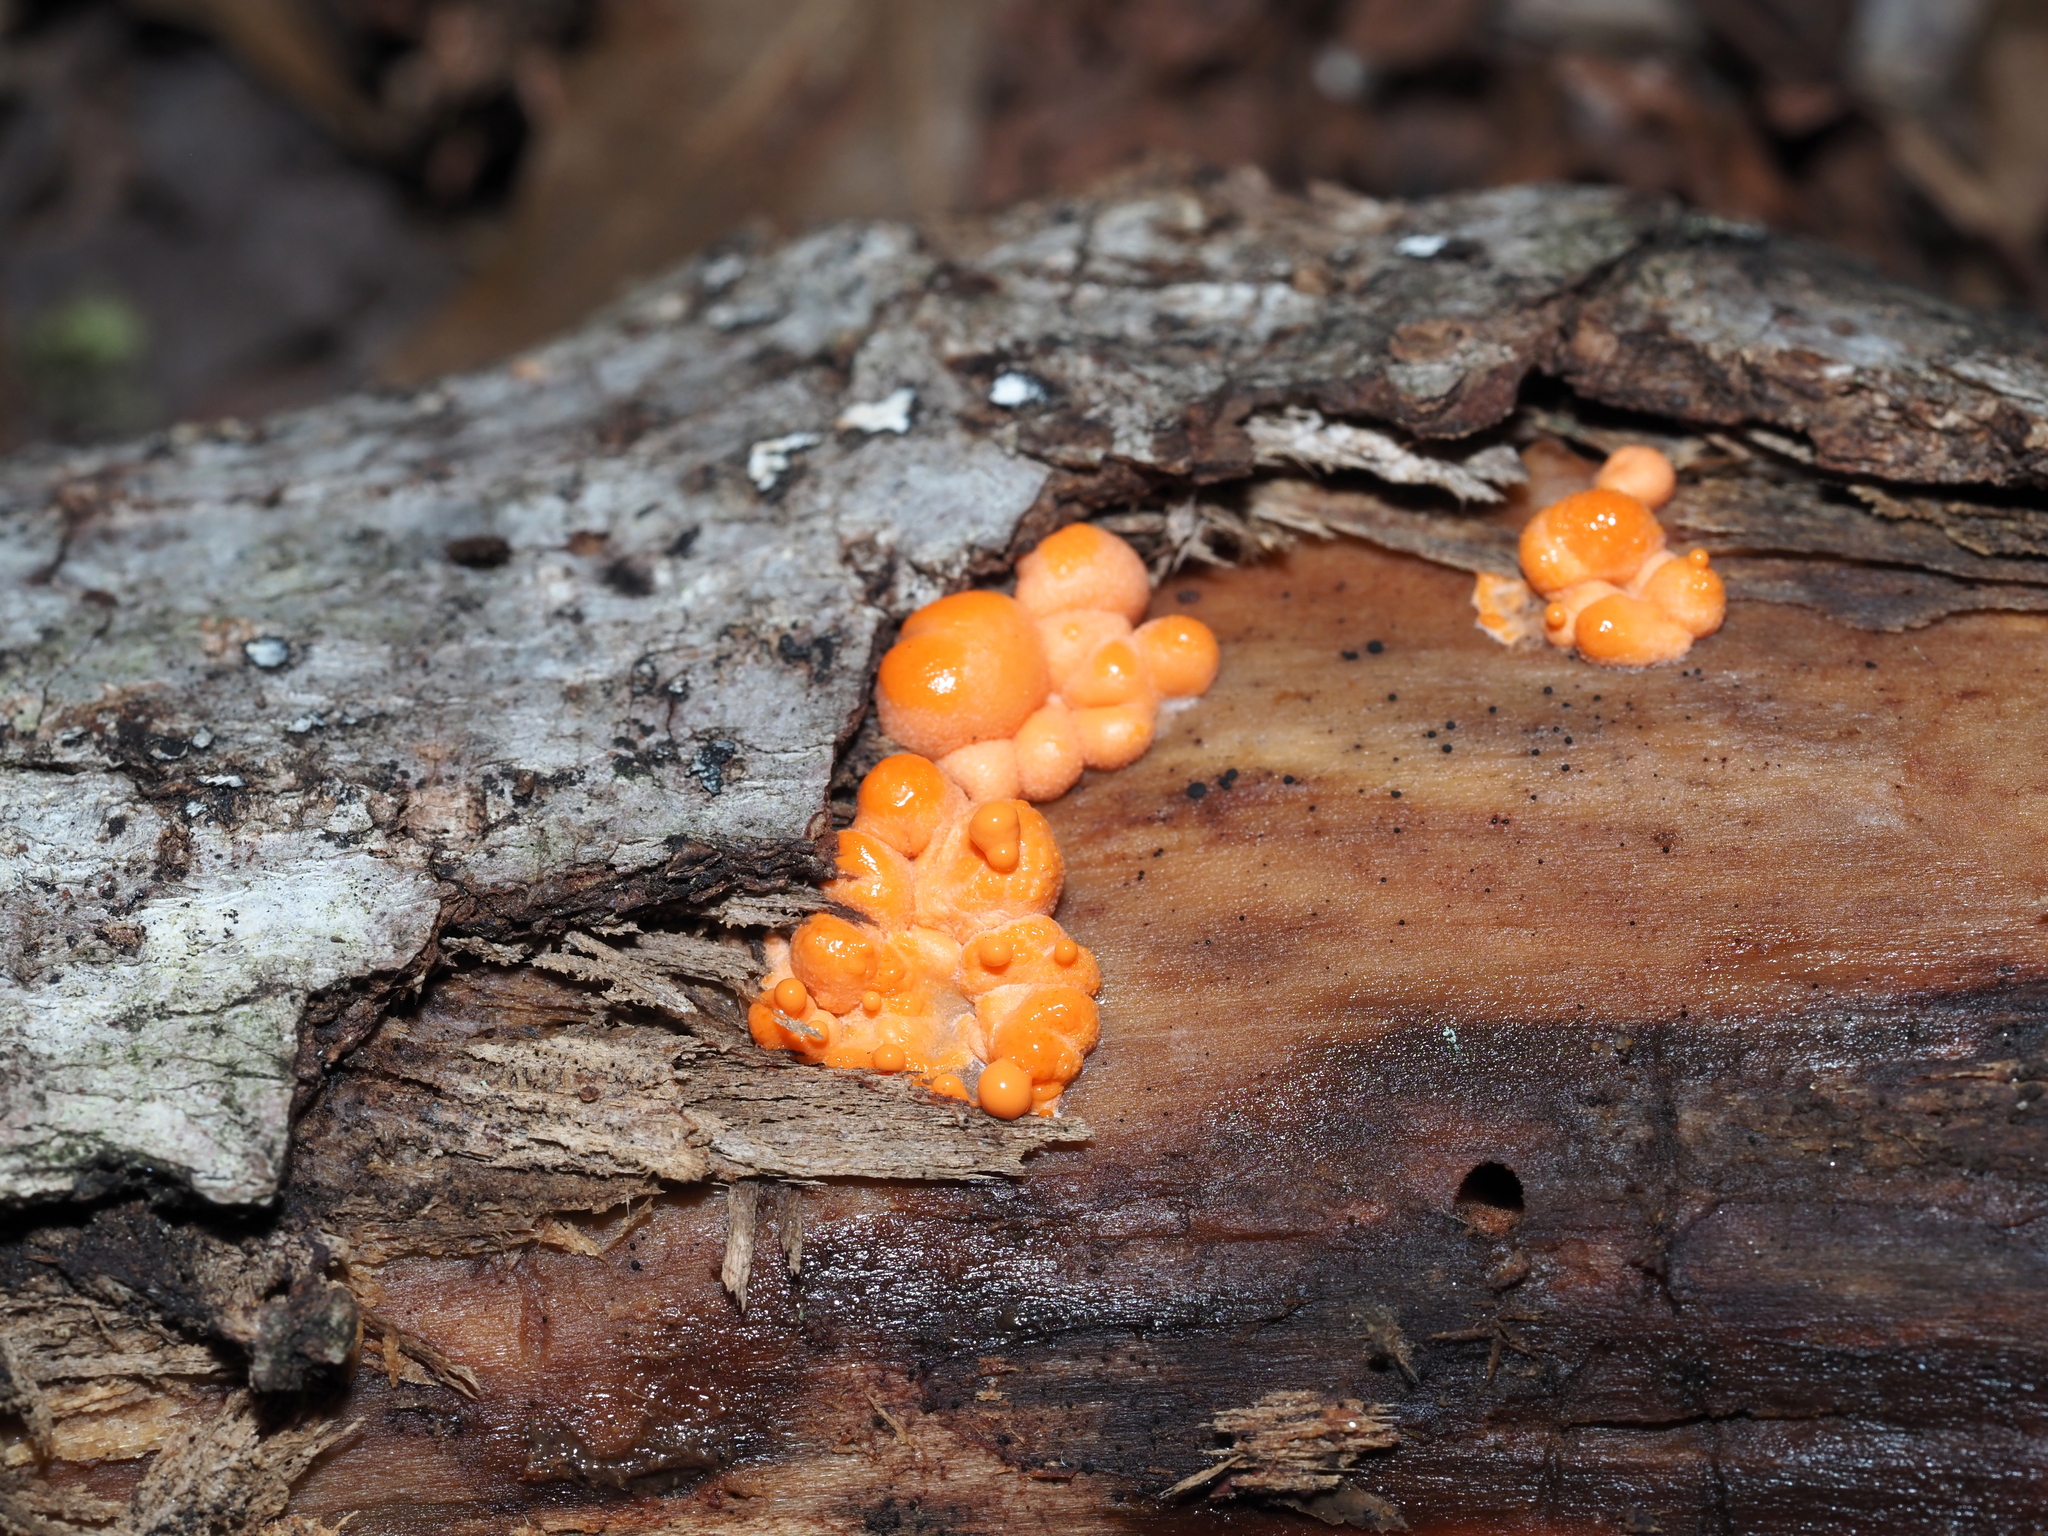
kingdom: Protozoa
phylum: Mycetozoa
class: Myxomycetes
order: Cribrariales
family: Tubiferaceae
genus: Lycogala
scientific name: Lycogala epidendrum
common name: Wolf's milk
